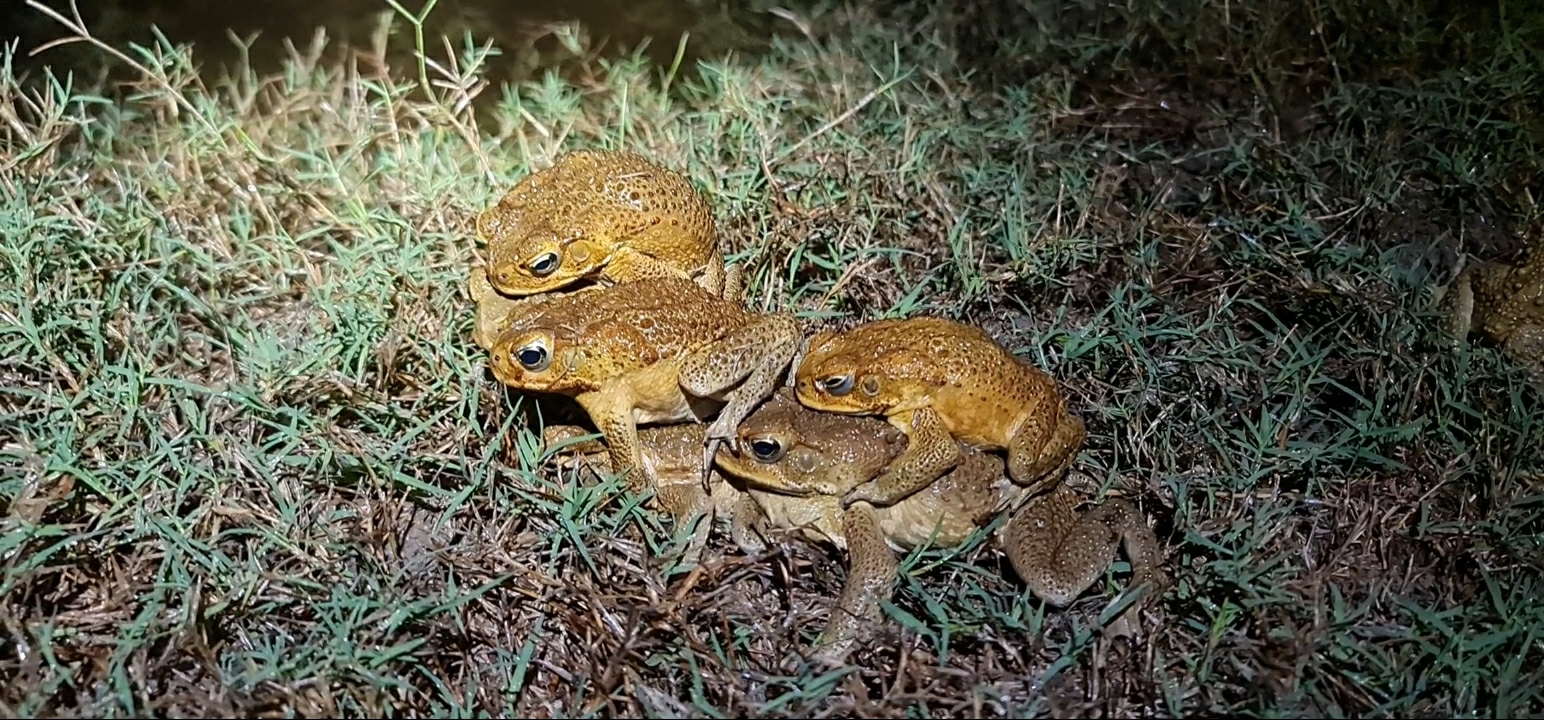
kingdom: Animalia
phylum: Chordata
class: Amphibia
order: Anura
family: Bufonidae
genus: Rhinella
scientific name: Rhinella marina
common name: Cane toad
